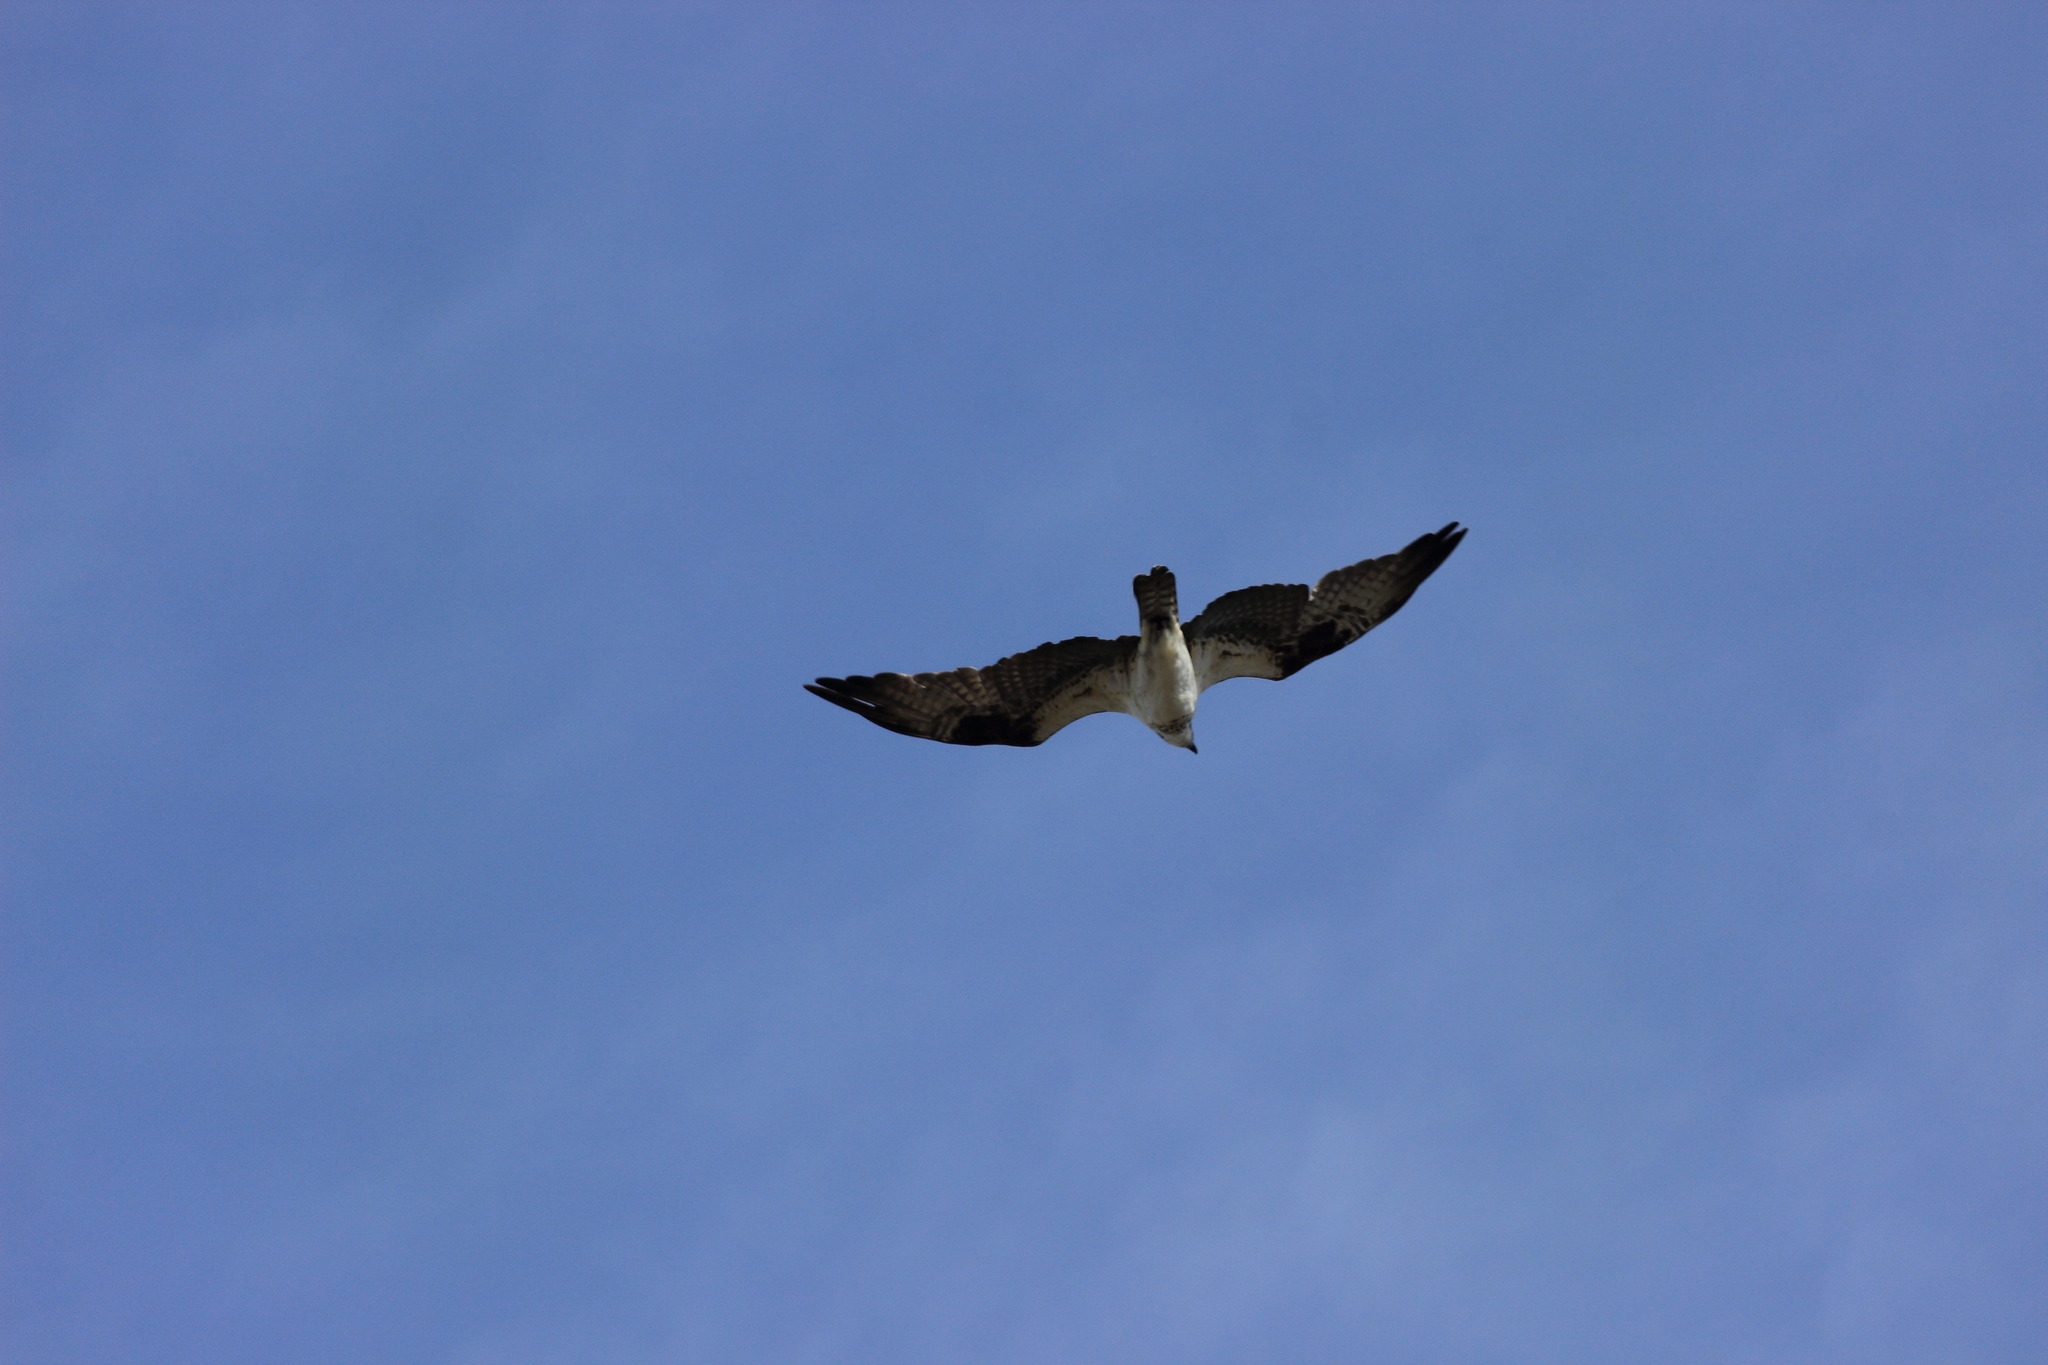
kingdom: Animalia
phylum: Chordata
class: Aves
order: Accipitriformes
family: Pandionidae
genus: Pandion
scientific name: Pandion haliaetus
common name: Osprey
